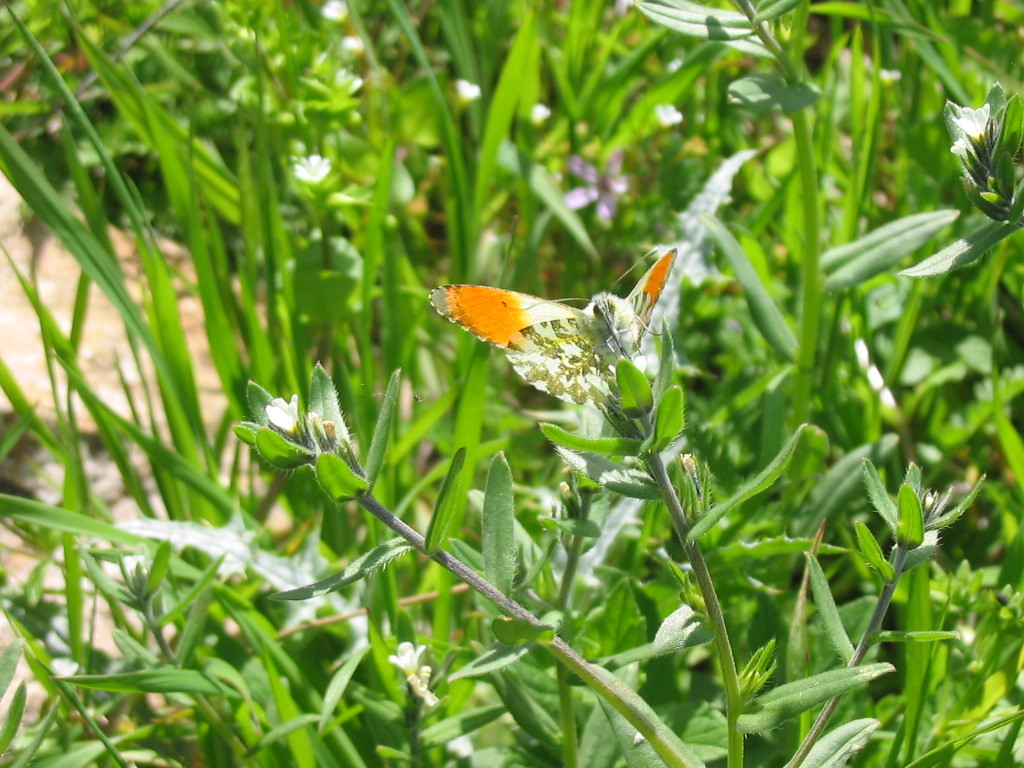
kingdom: Animalia
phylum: Arthropoda
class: Insecta
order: Lepidoptera
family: Pieridae
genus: Anthocharis
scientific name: Anthocharis cardamines
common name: Orange-tip
